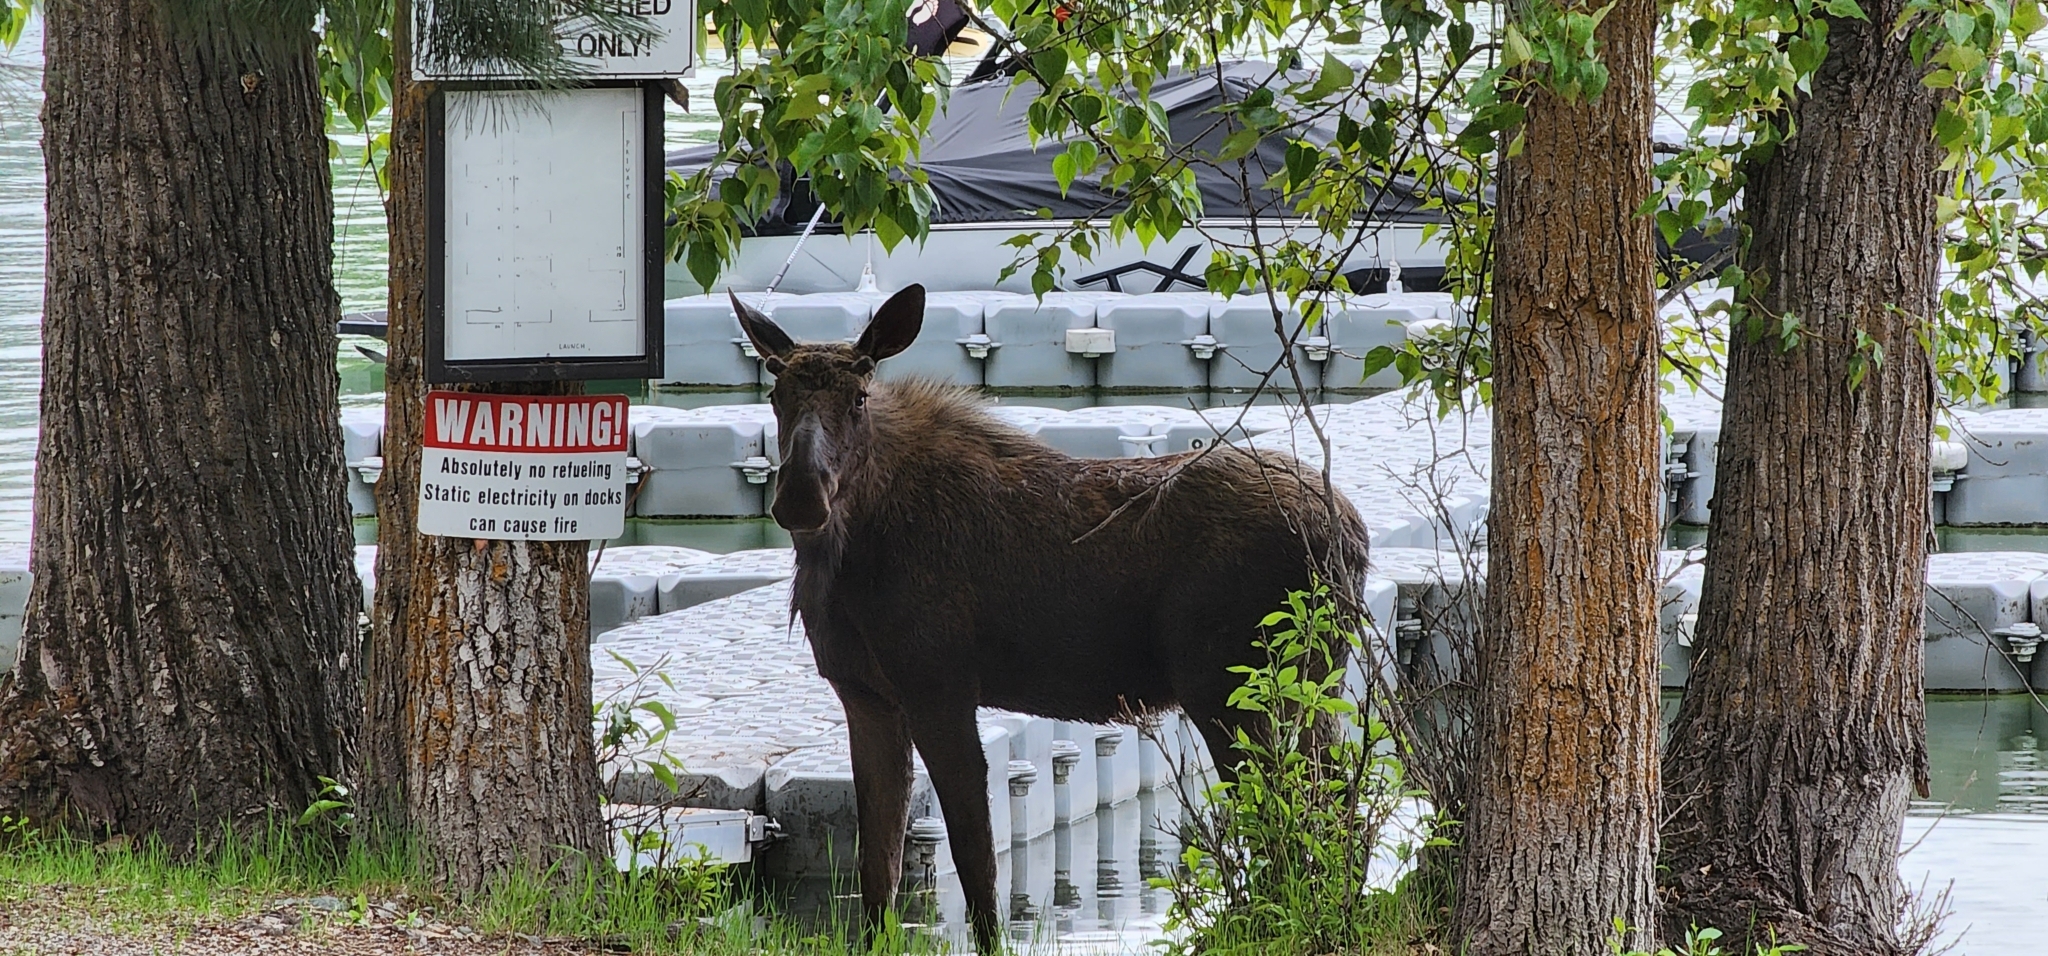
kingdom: Animalia
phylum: Chordata
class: Mammalia
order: Artiodactyla
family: Cervidae
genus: Alces
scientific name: Alces alces
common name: Moose
